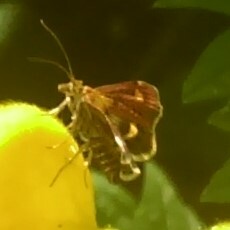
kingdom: Animalia
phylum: Arthropoda
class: Insecta
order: Lepidoptera
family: Crambidae
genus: Pyrausta
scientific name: Pyrausta aurata
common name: Small purple & gold
